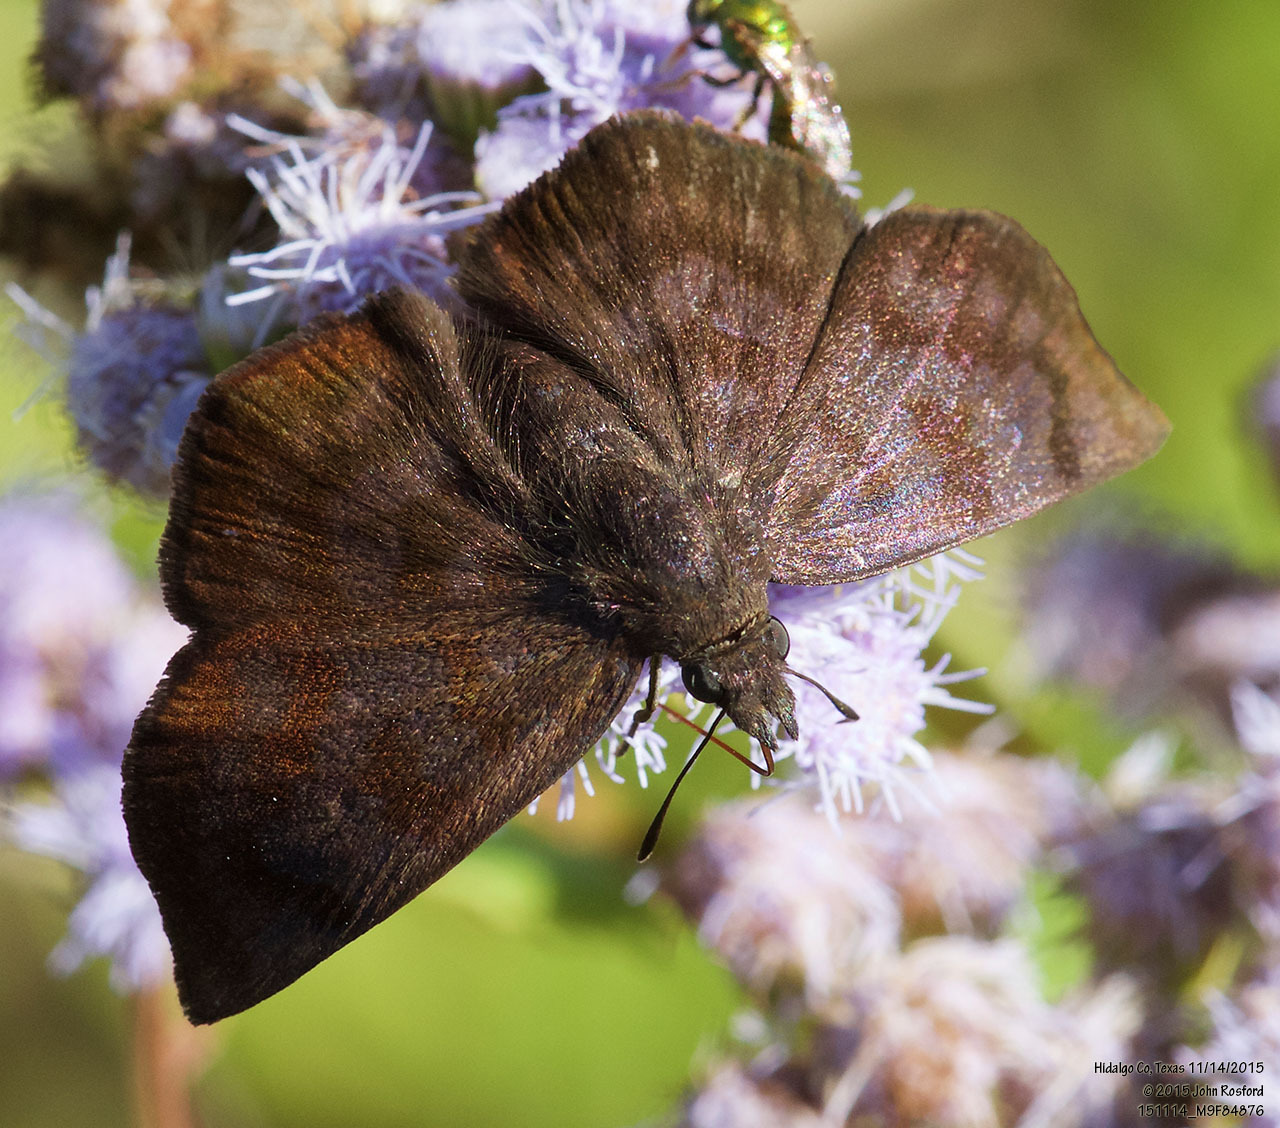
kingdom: Animalia
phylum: Arthropoda
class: Insecta
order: Lepidoptera
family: Hesperiidae
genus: Pellicia
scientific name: Pellicia costimacula
